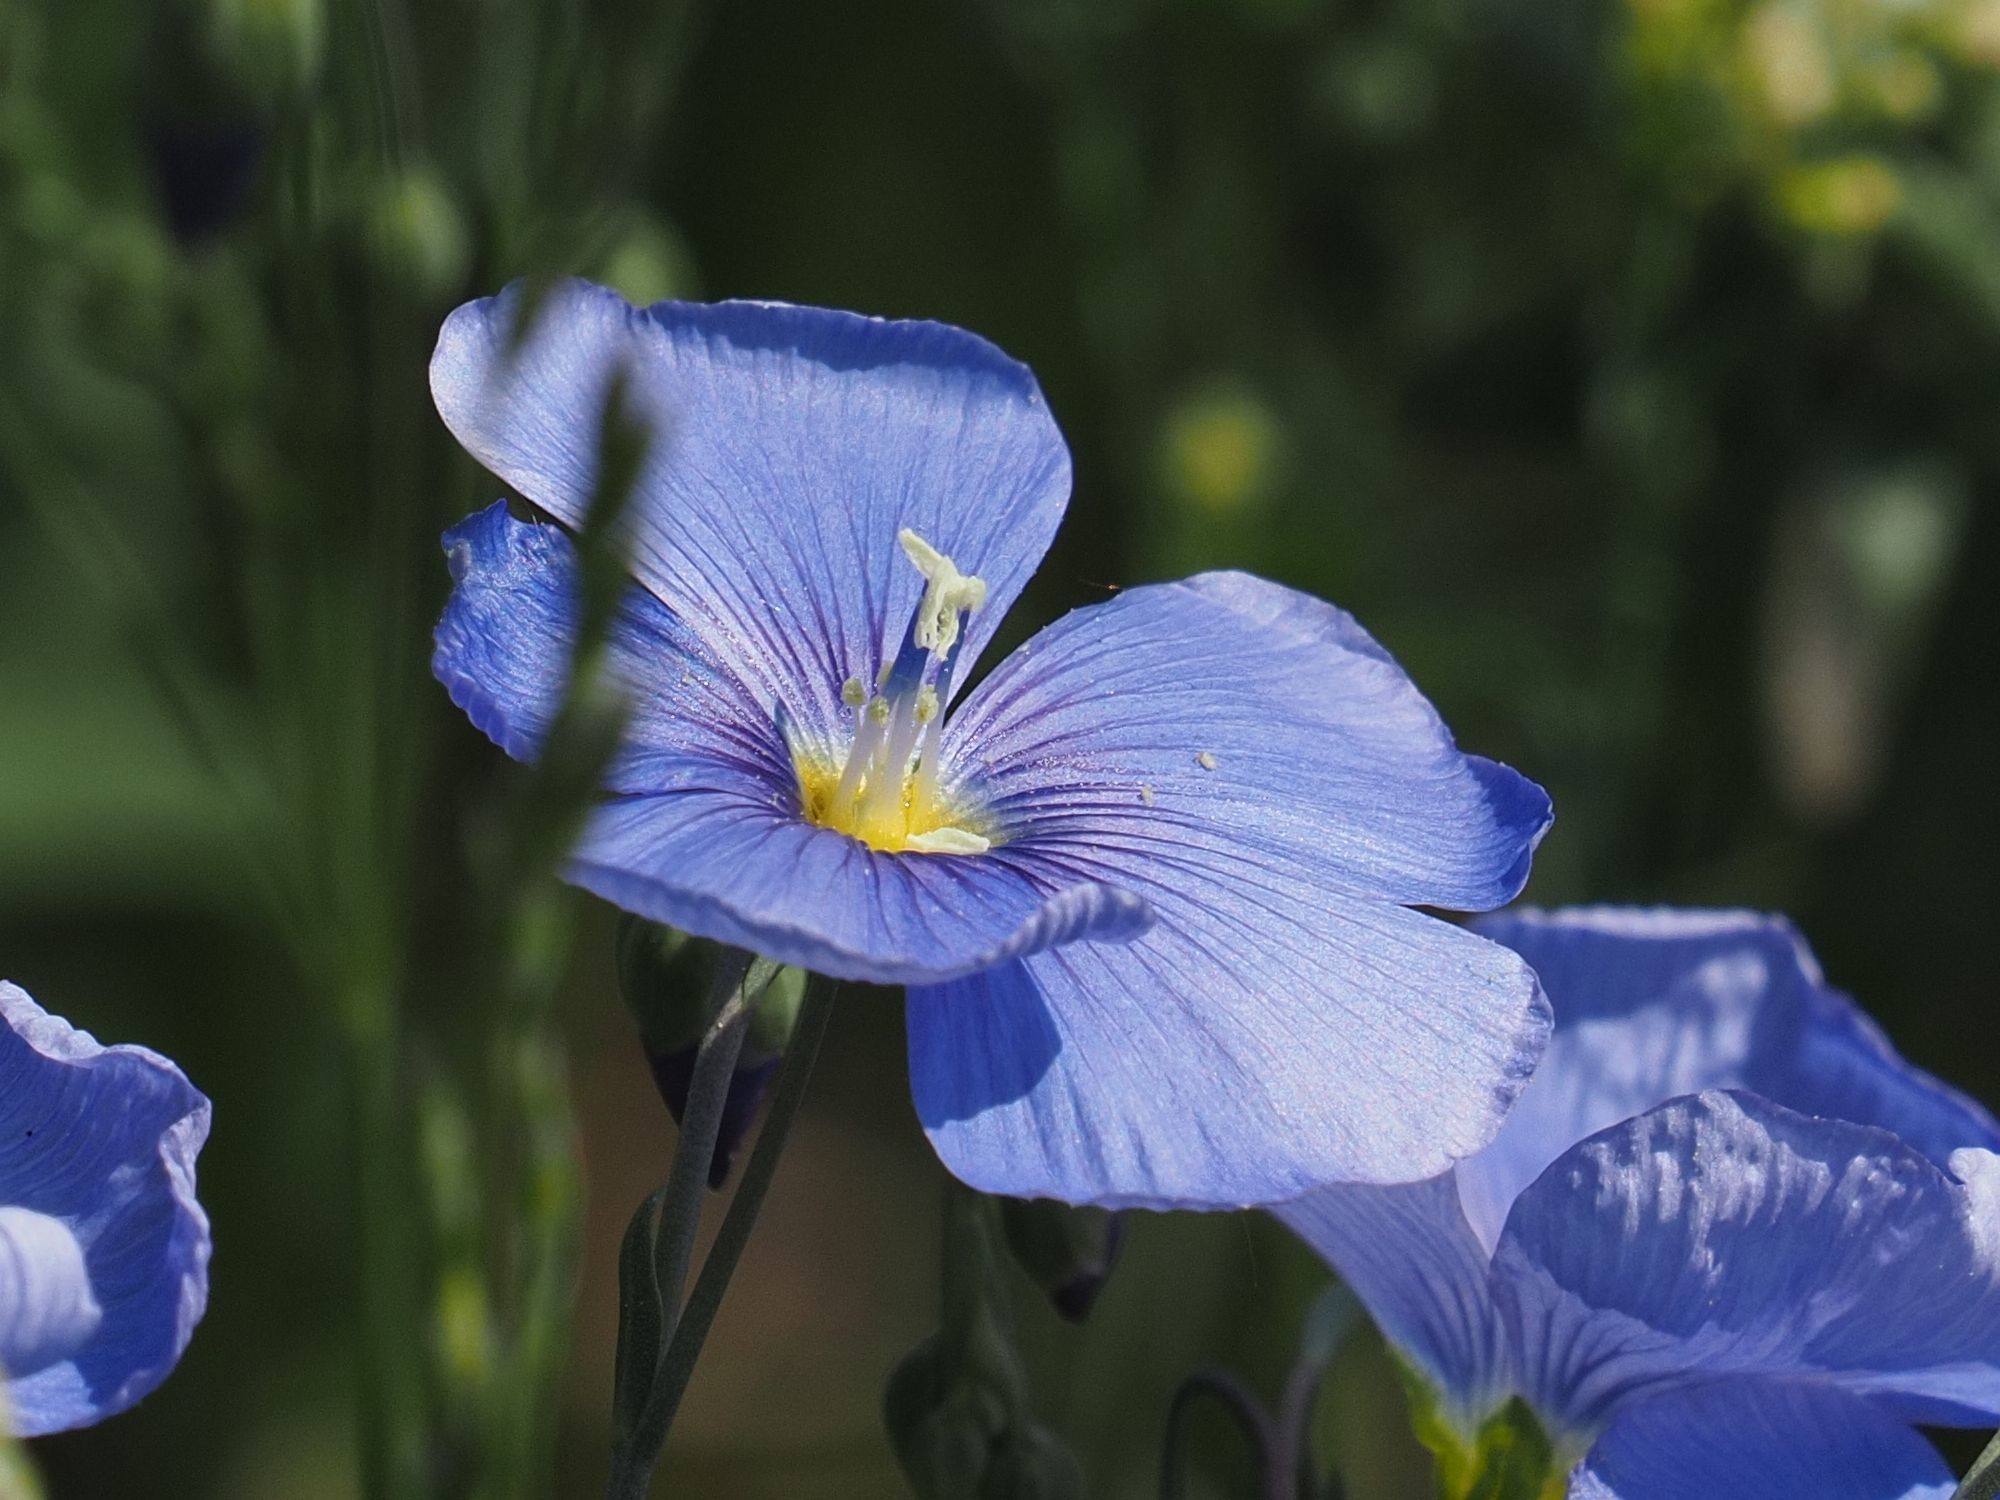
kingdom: Plantae
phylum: Tracheophyta
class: Magnoliopsida
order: Malpighiales
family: Linaceae
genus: Linum
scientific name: Linum austriacum
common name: Austrian flax
